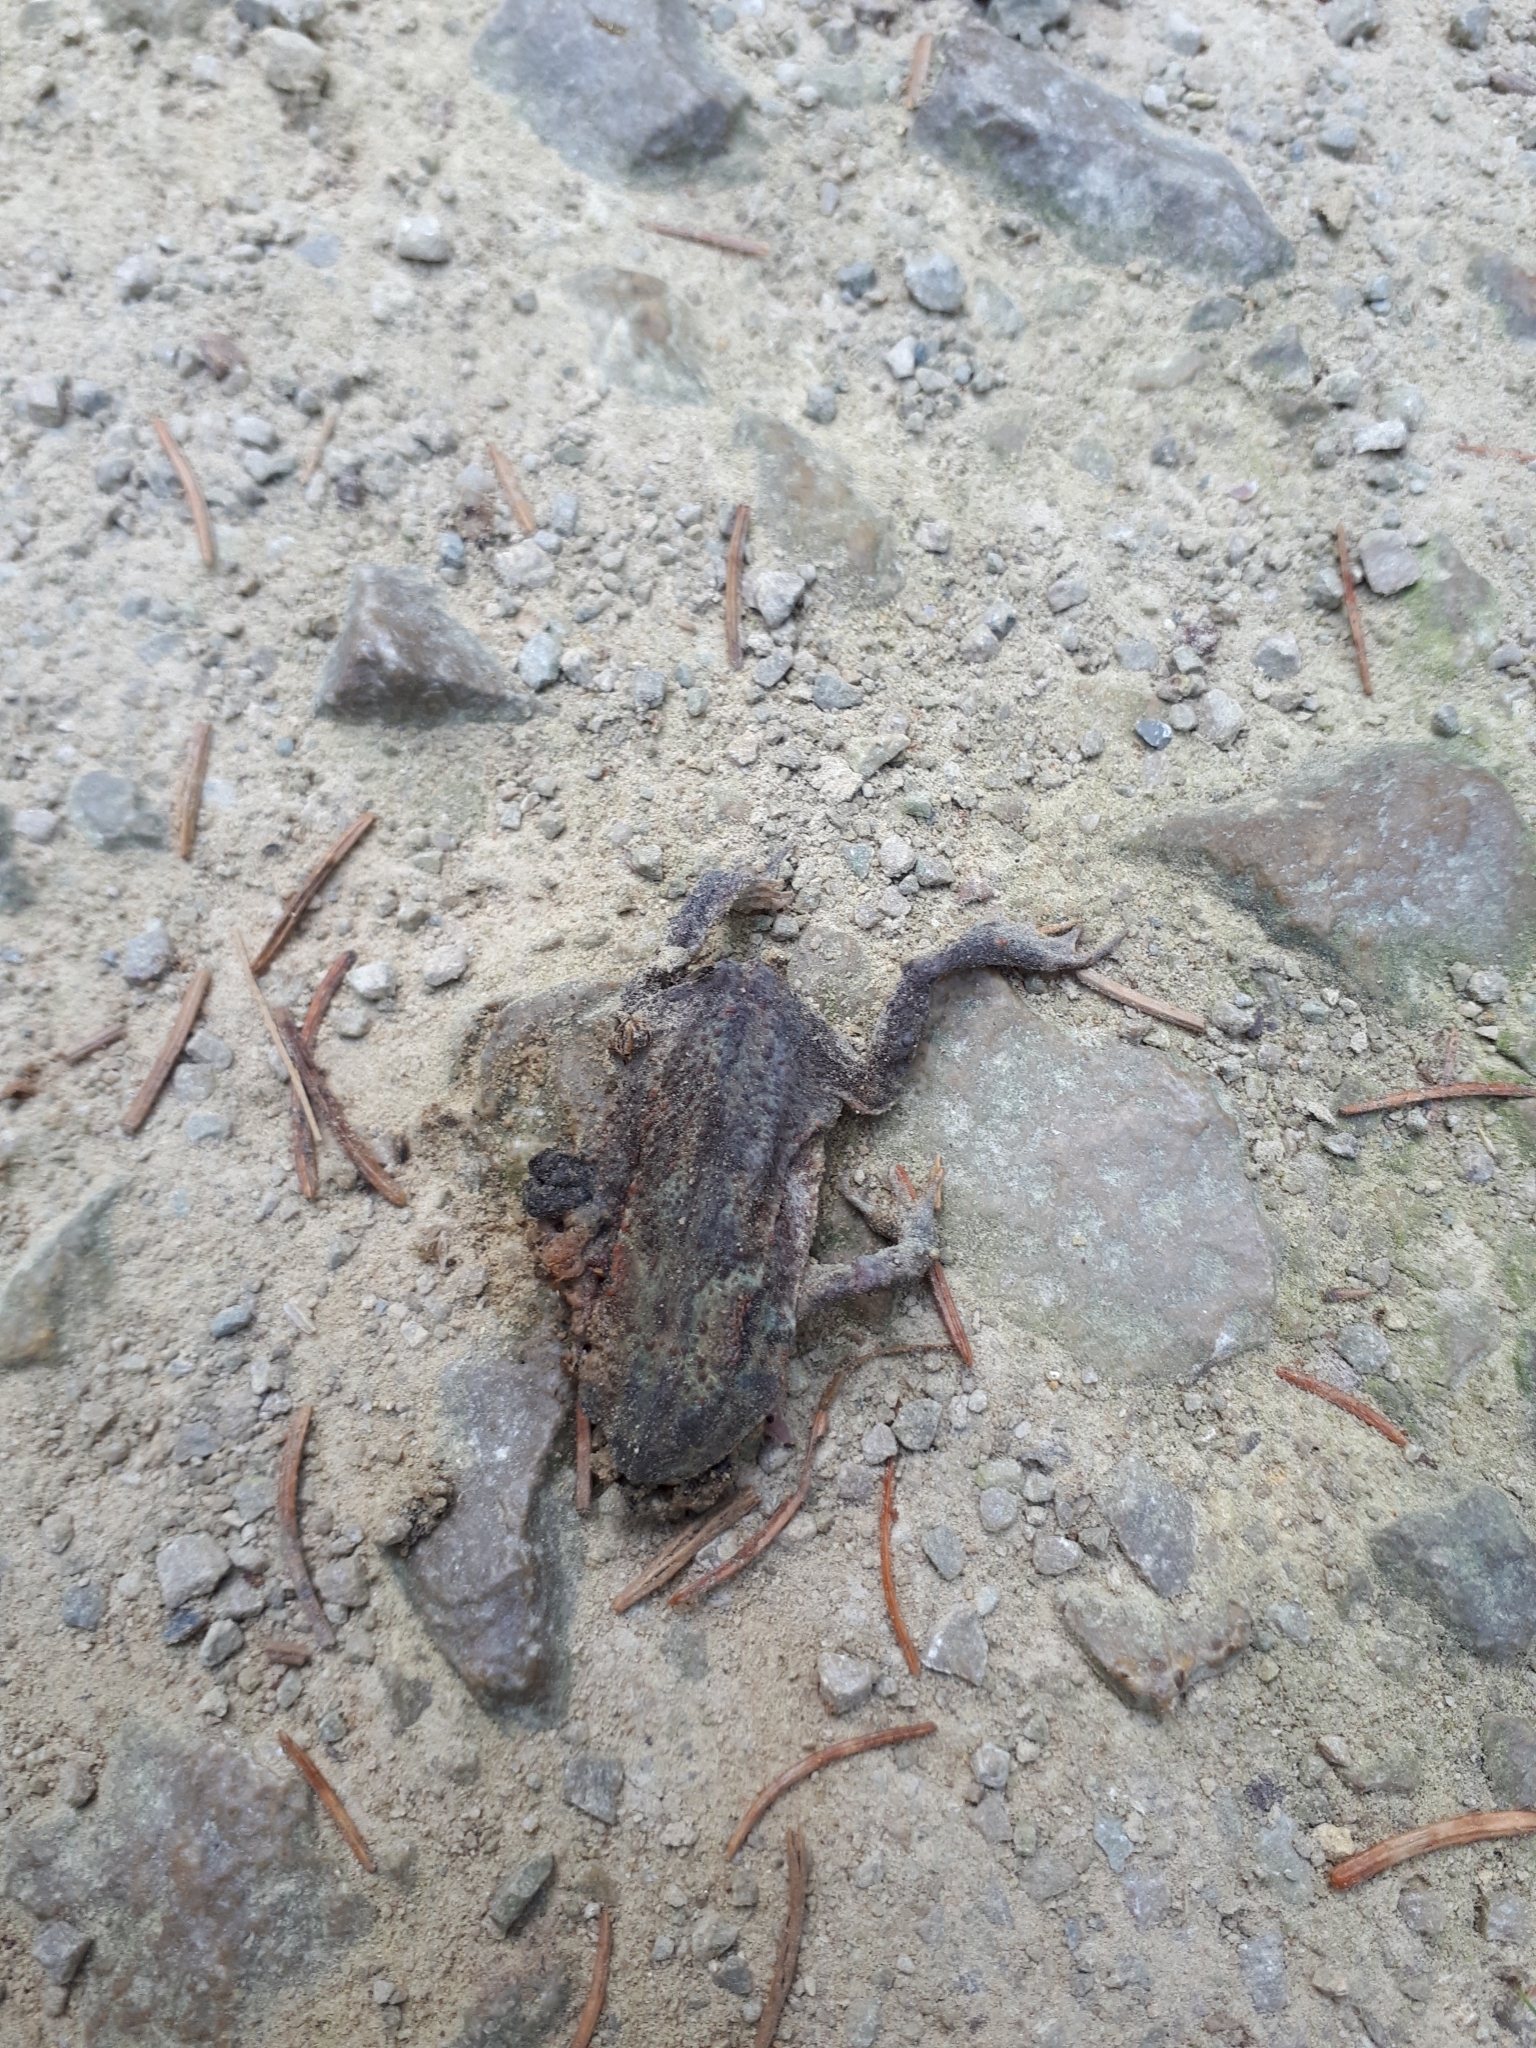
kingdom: Animalia
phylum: Chordata
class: Amphibia
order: Anura
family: Bufonidae
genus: Bufo
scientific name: Bufo bufo
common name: Common toad
